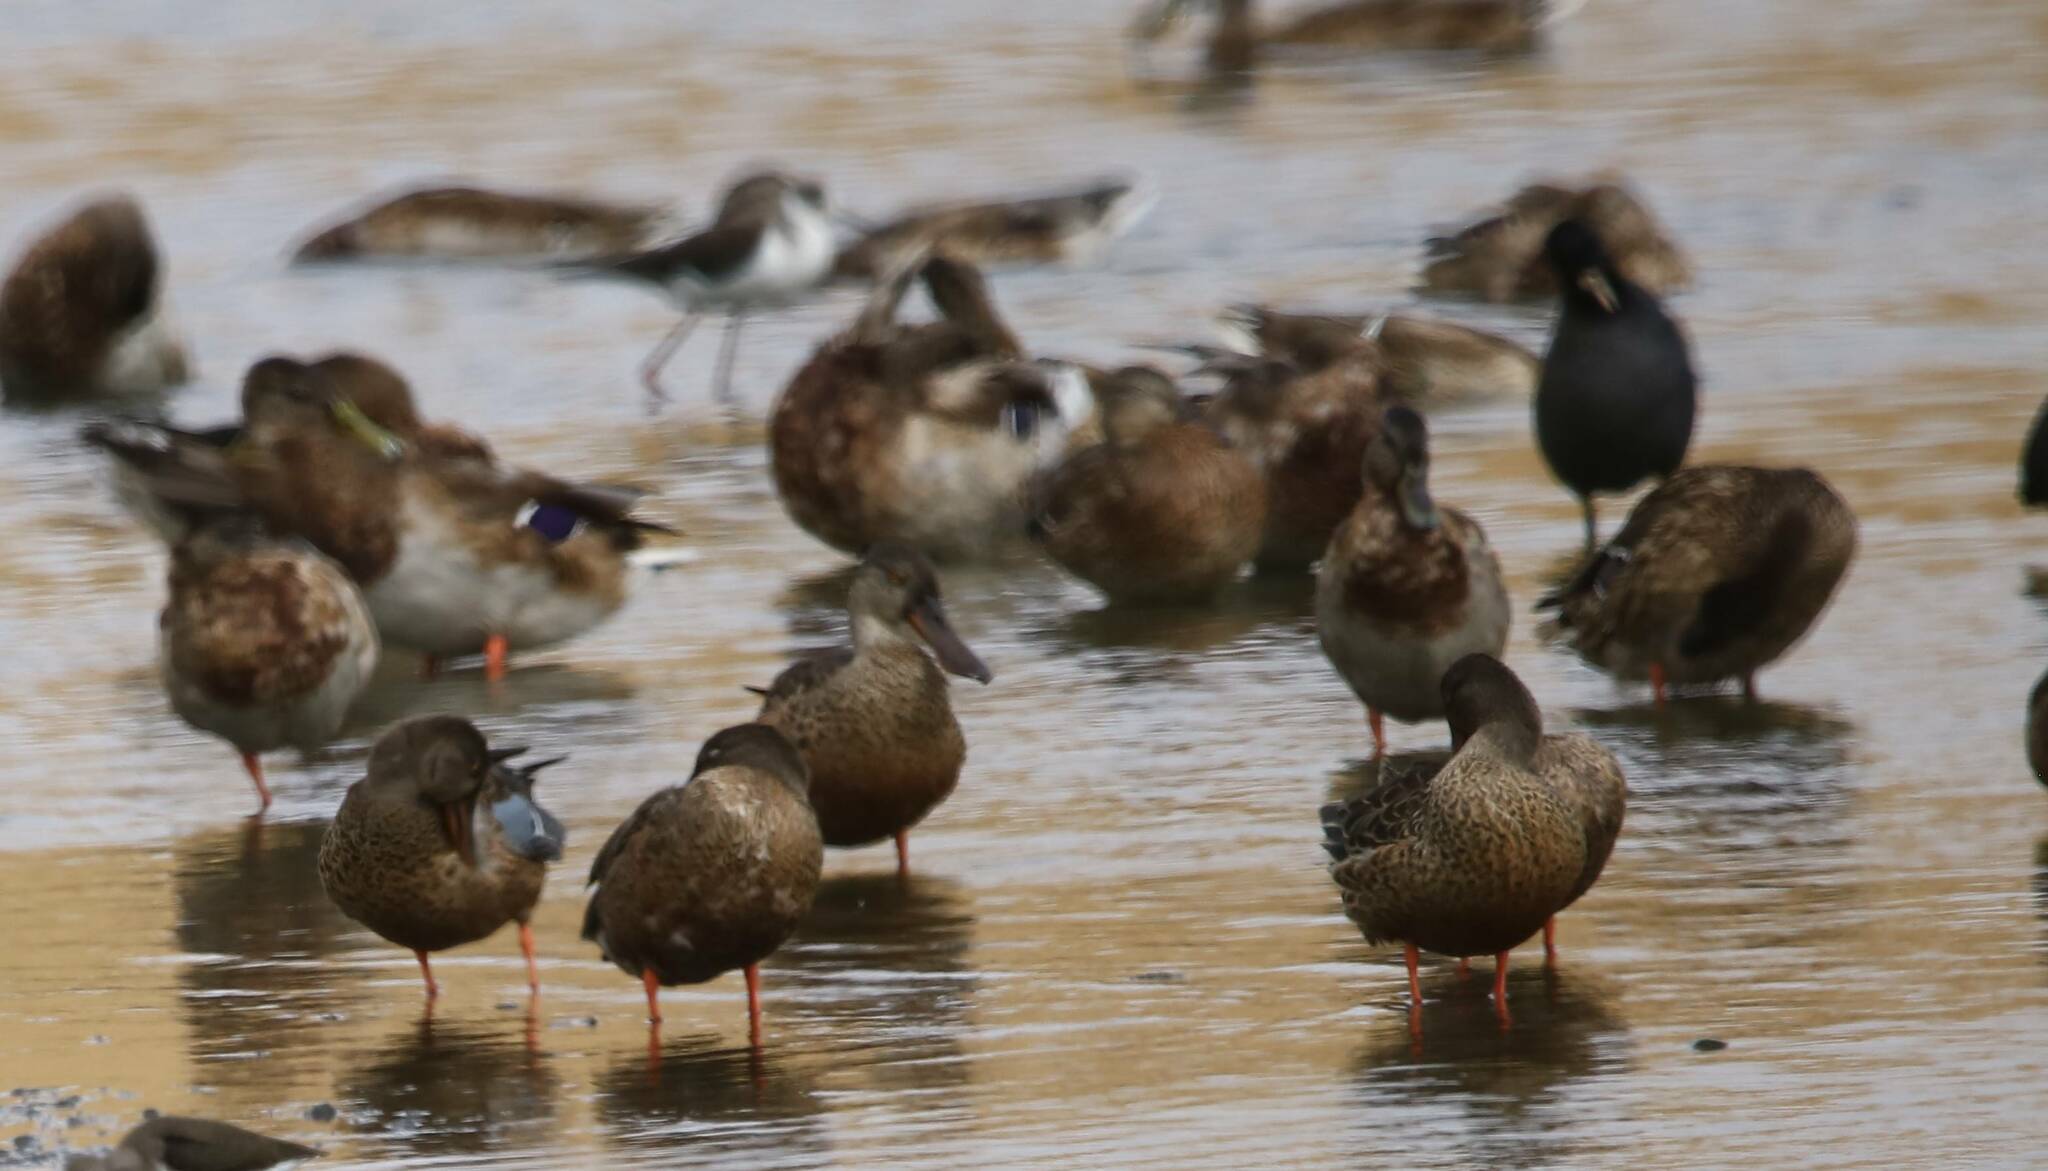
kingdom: Animalia
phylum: Chordata
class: Aves
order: Anseriformes
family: Anatidae
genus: Anas
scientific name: Anas platyrhynchos
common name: Mallard
